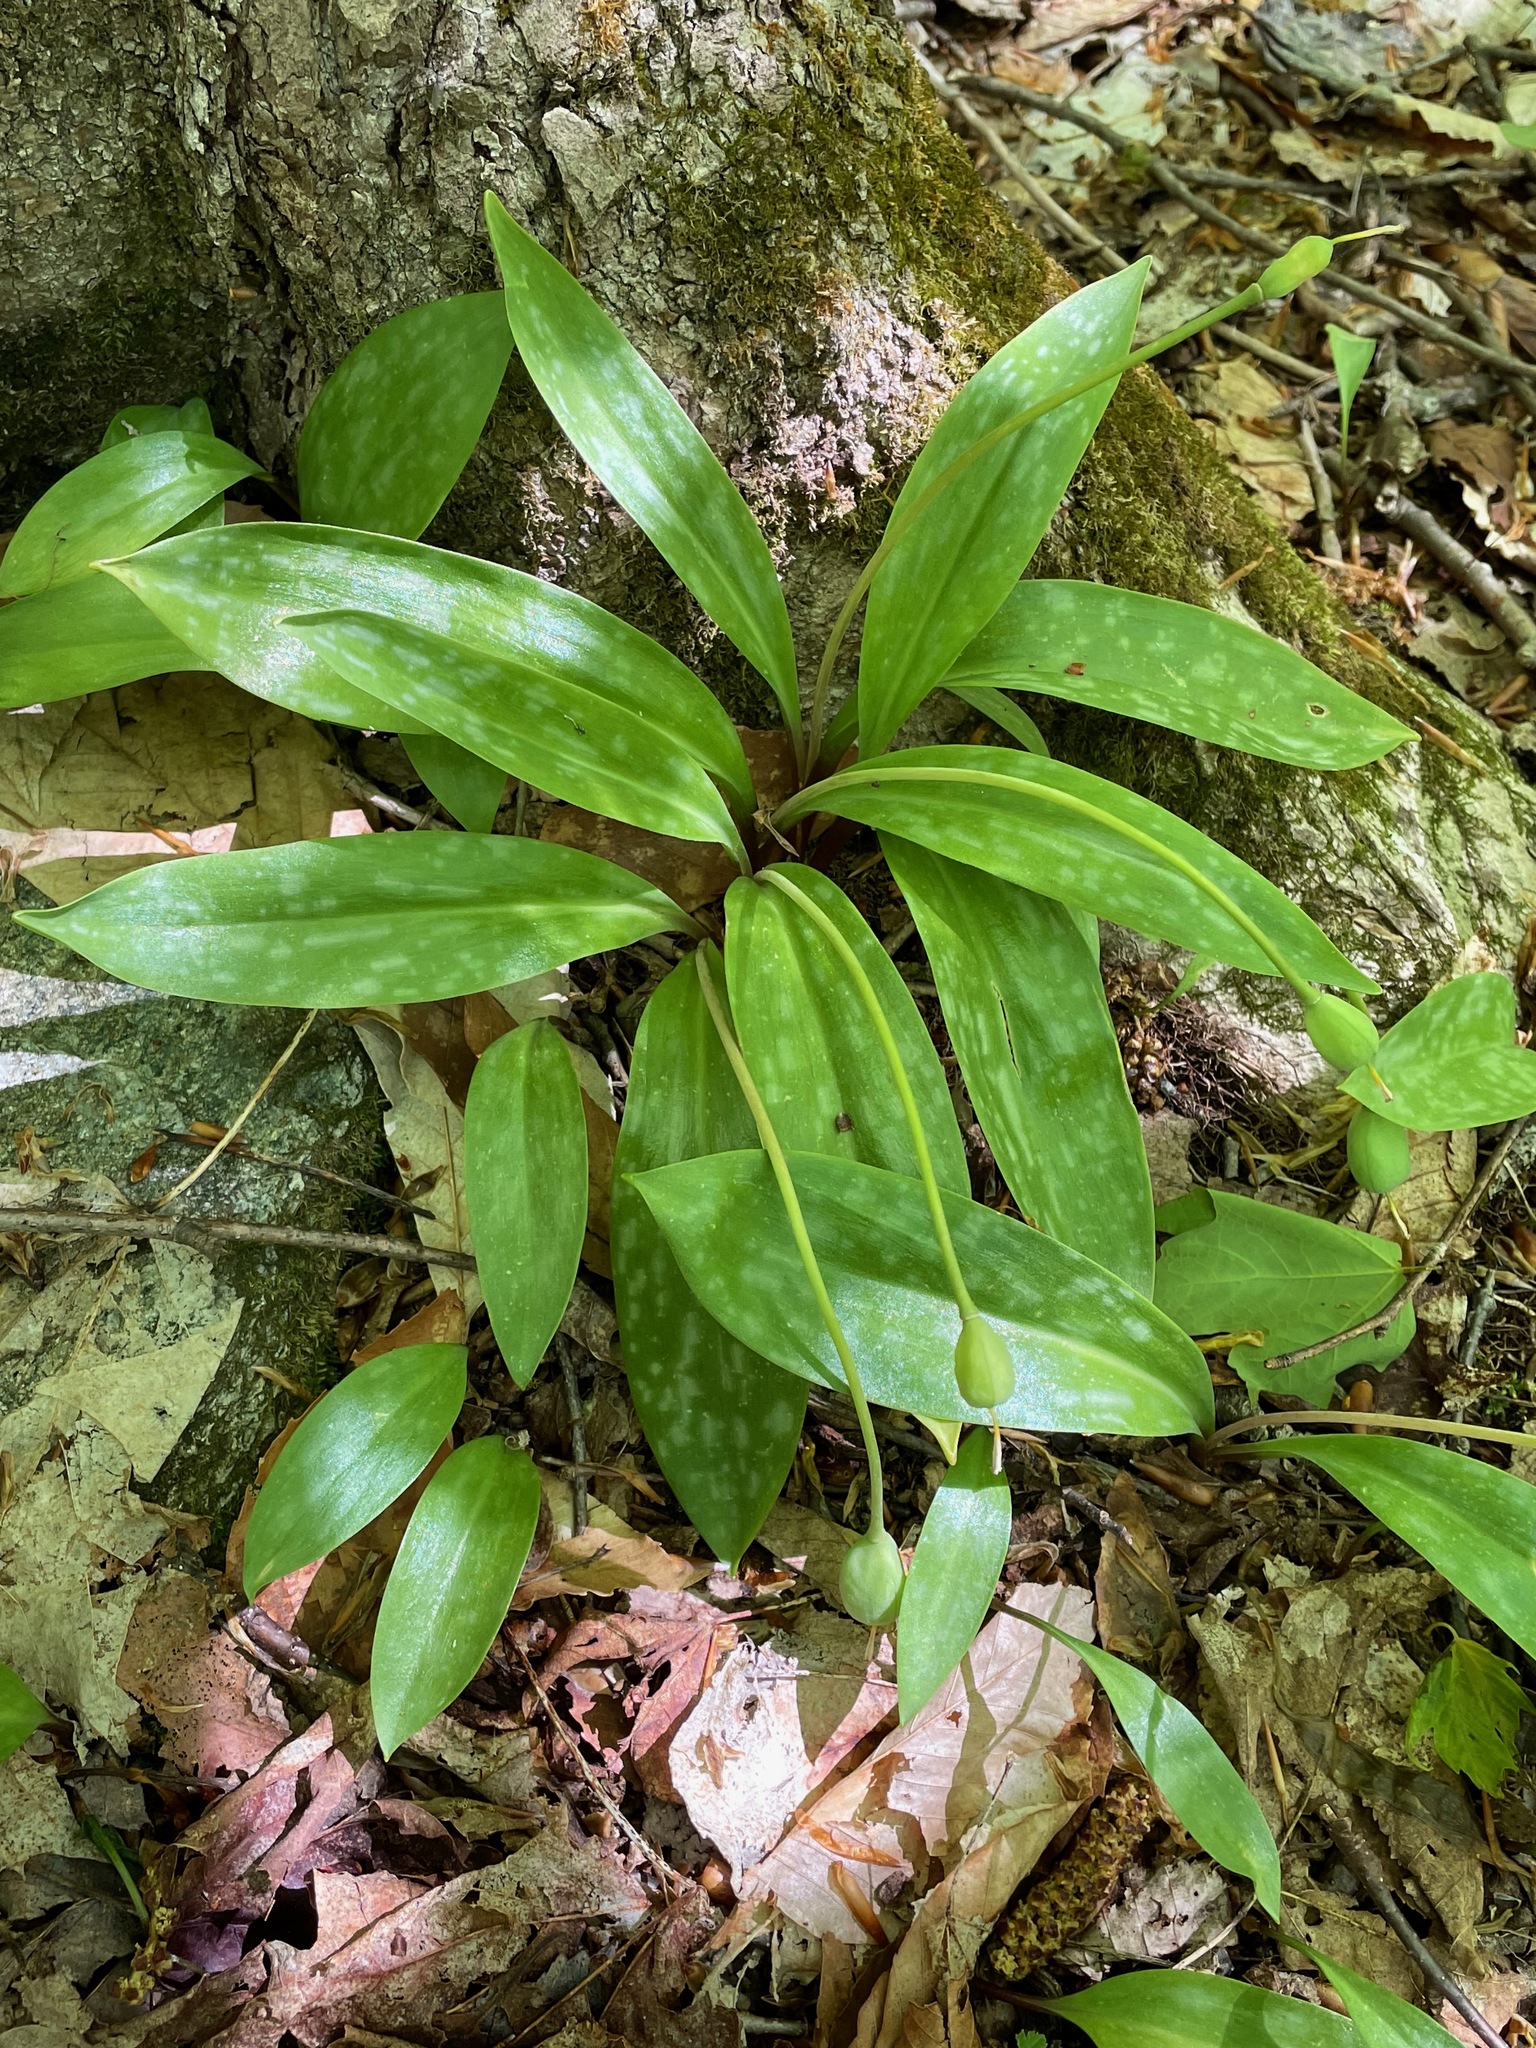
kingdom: Plantae
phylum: Tracheophyta
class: Liliopsida
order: Liliales
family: Liliaceae
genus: Erythronium
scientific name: Erythronium americanum
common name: Yellow adder's-tongue
